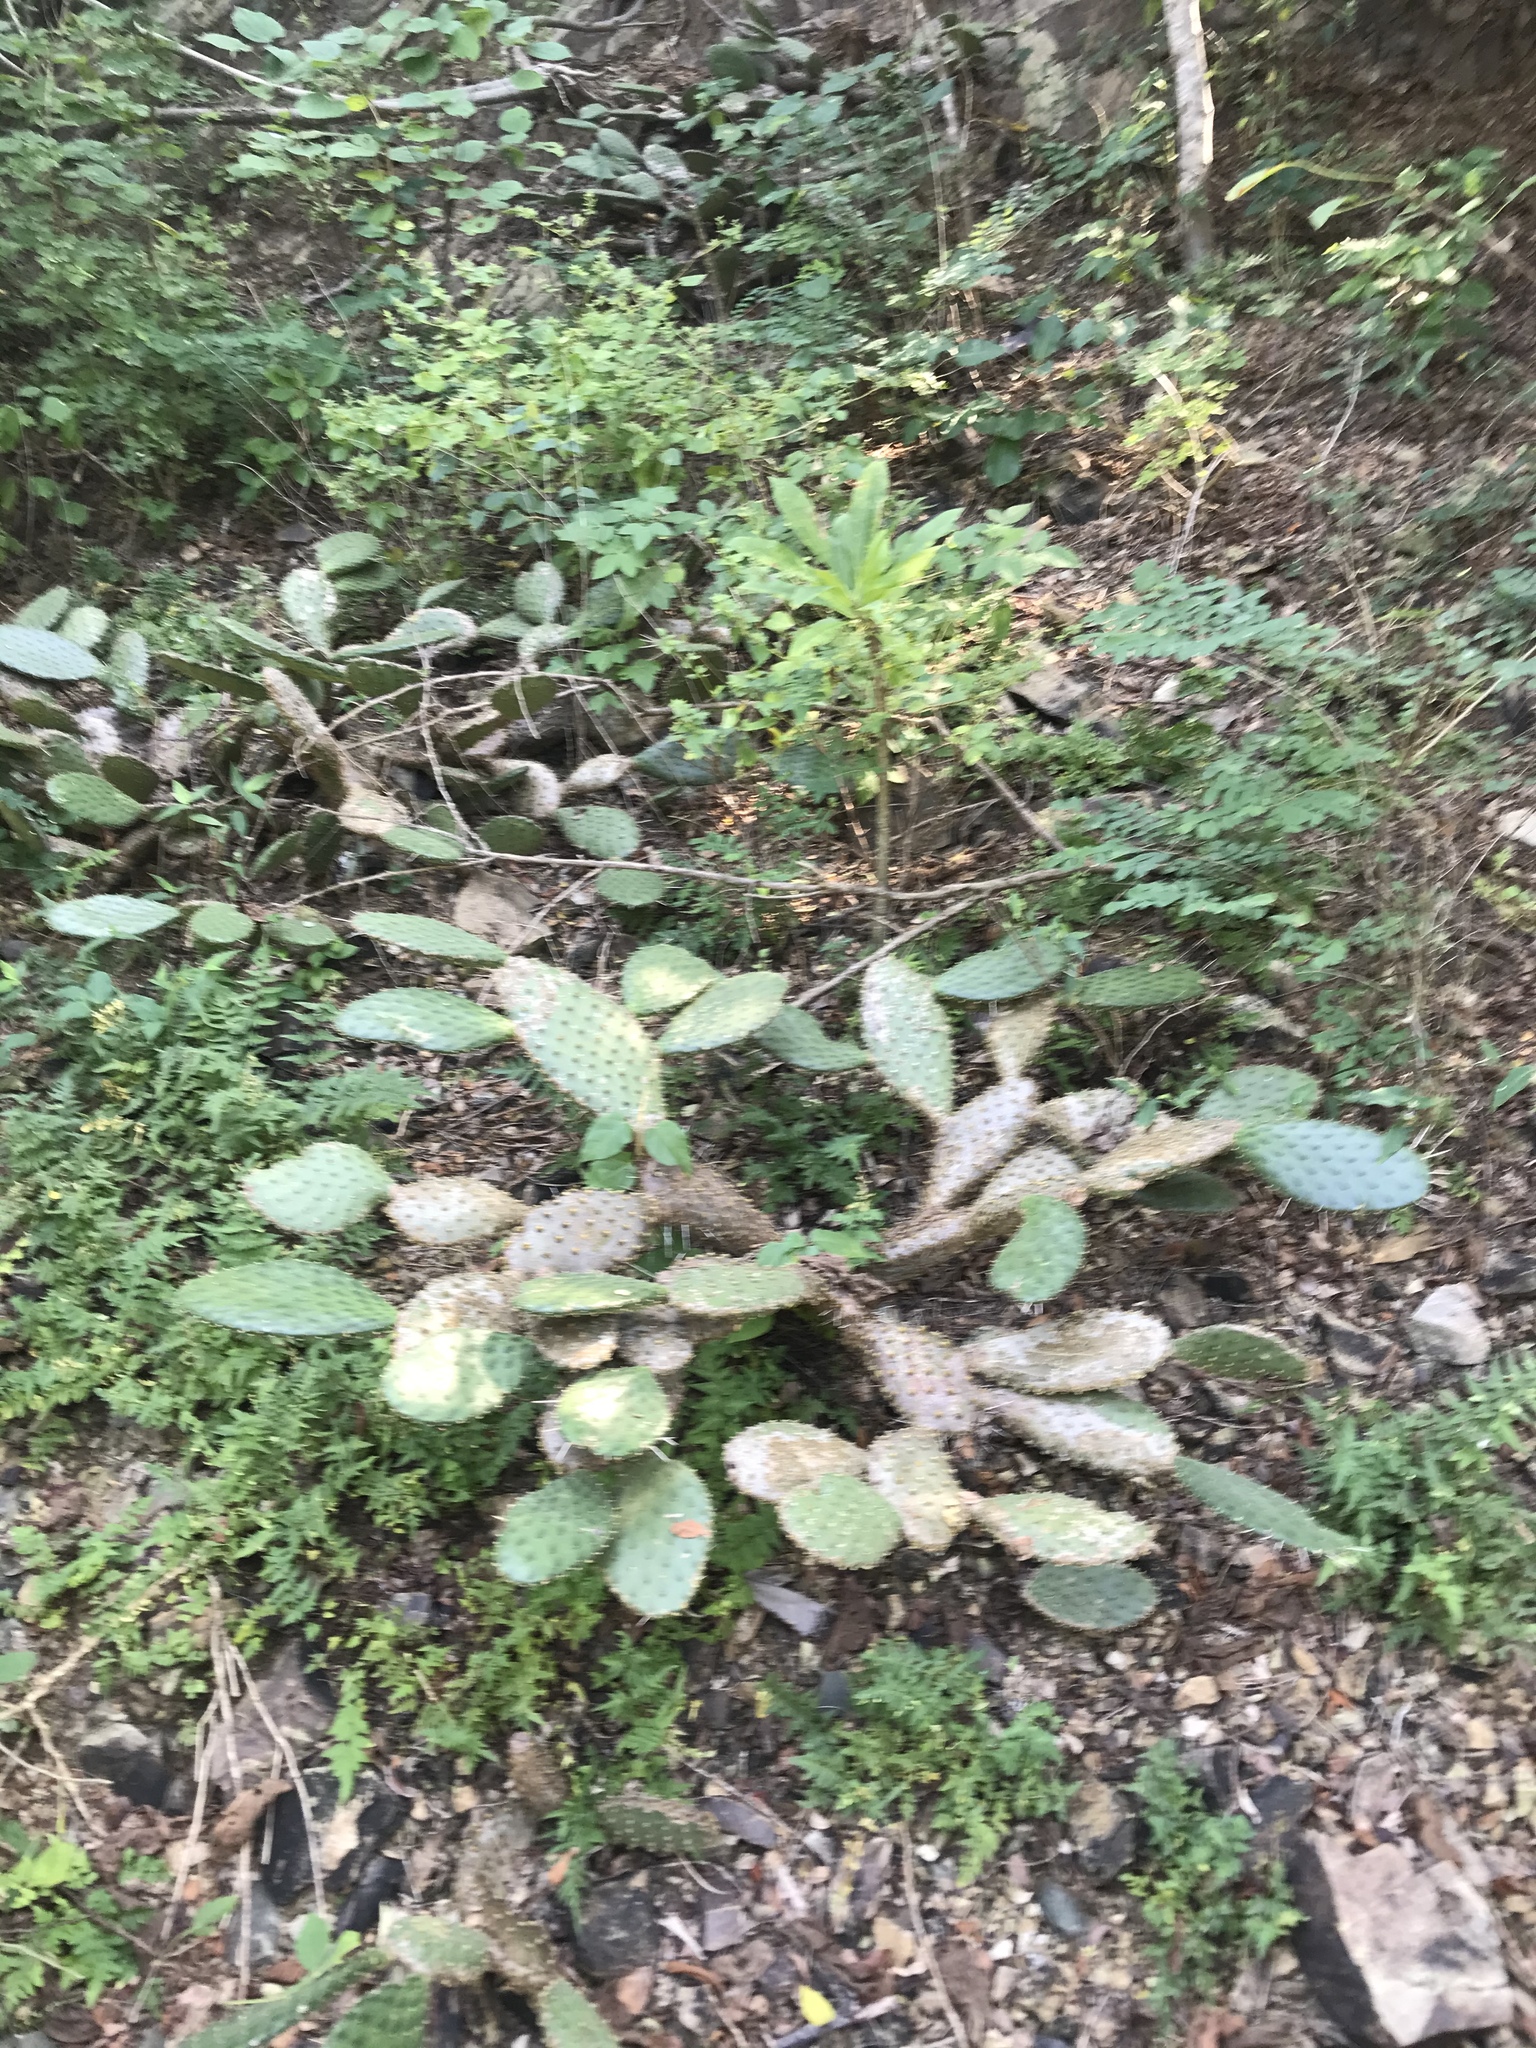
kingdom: Plantae
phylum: Tracheophyta
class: Magnoliopsida
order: Caryophyllales
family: Cactaceae
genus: Opuntia
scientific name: Opuntia decumbens
